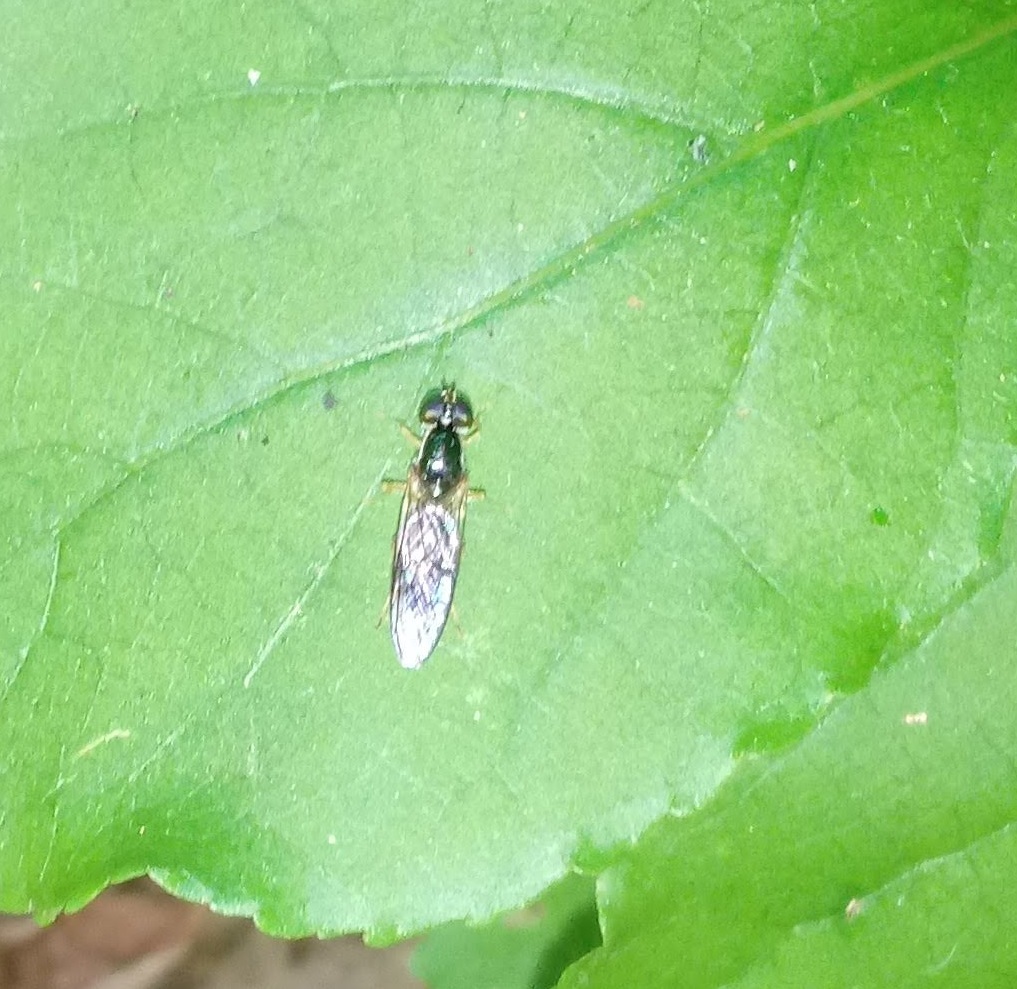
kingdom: Animalia
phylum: Arthropoda
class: Insecta
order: Diptera
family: Stratiomyidae
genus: Sargus
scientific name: Sargus decorus
